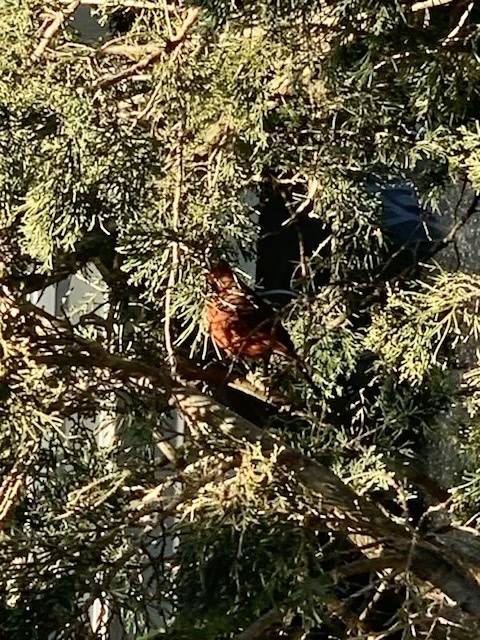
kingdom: Animalia
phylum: Chordata
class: Aves
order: Passeriformes
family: Cardinalidae
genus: Cardinalis
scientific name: Cardinalis cardinalis
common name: Northern cardinal
